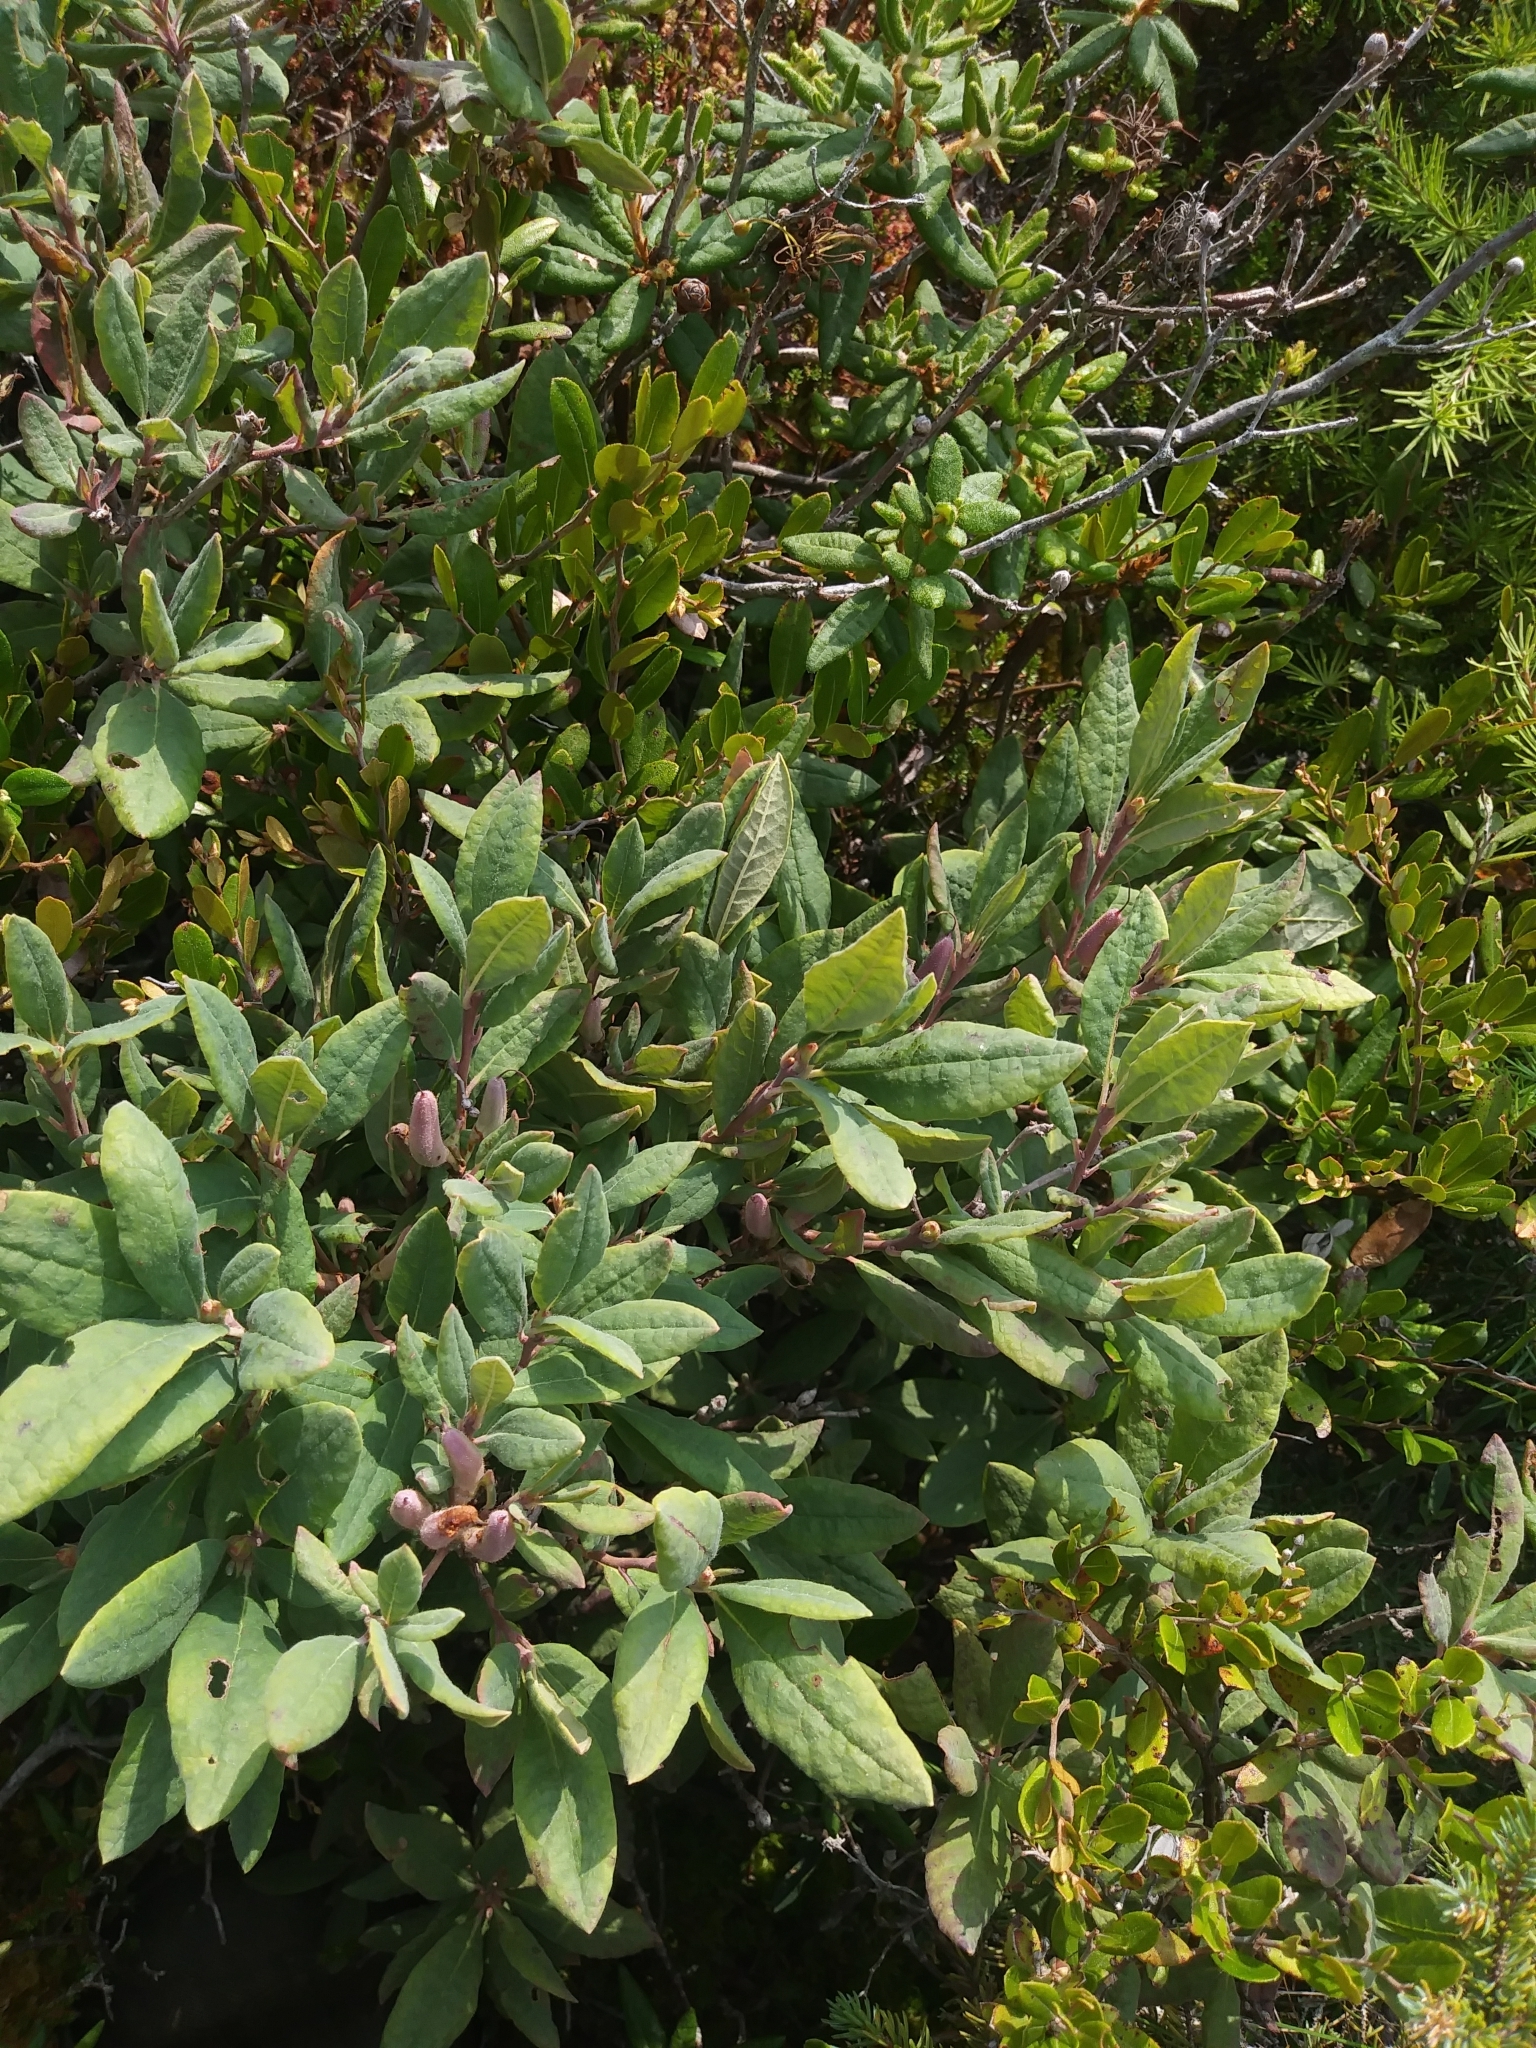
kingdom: Plantae
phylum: Tracheophyta
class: Magnoliopsida
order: Ericales
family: Ericaceae
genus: Rhododendron
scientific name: Rhododendron canadense
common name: Rhodora
